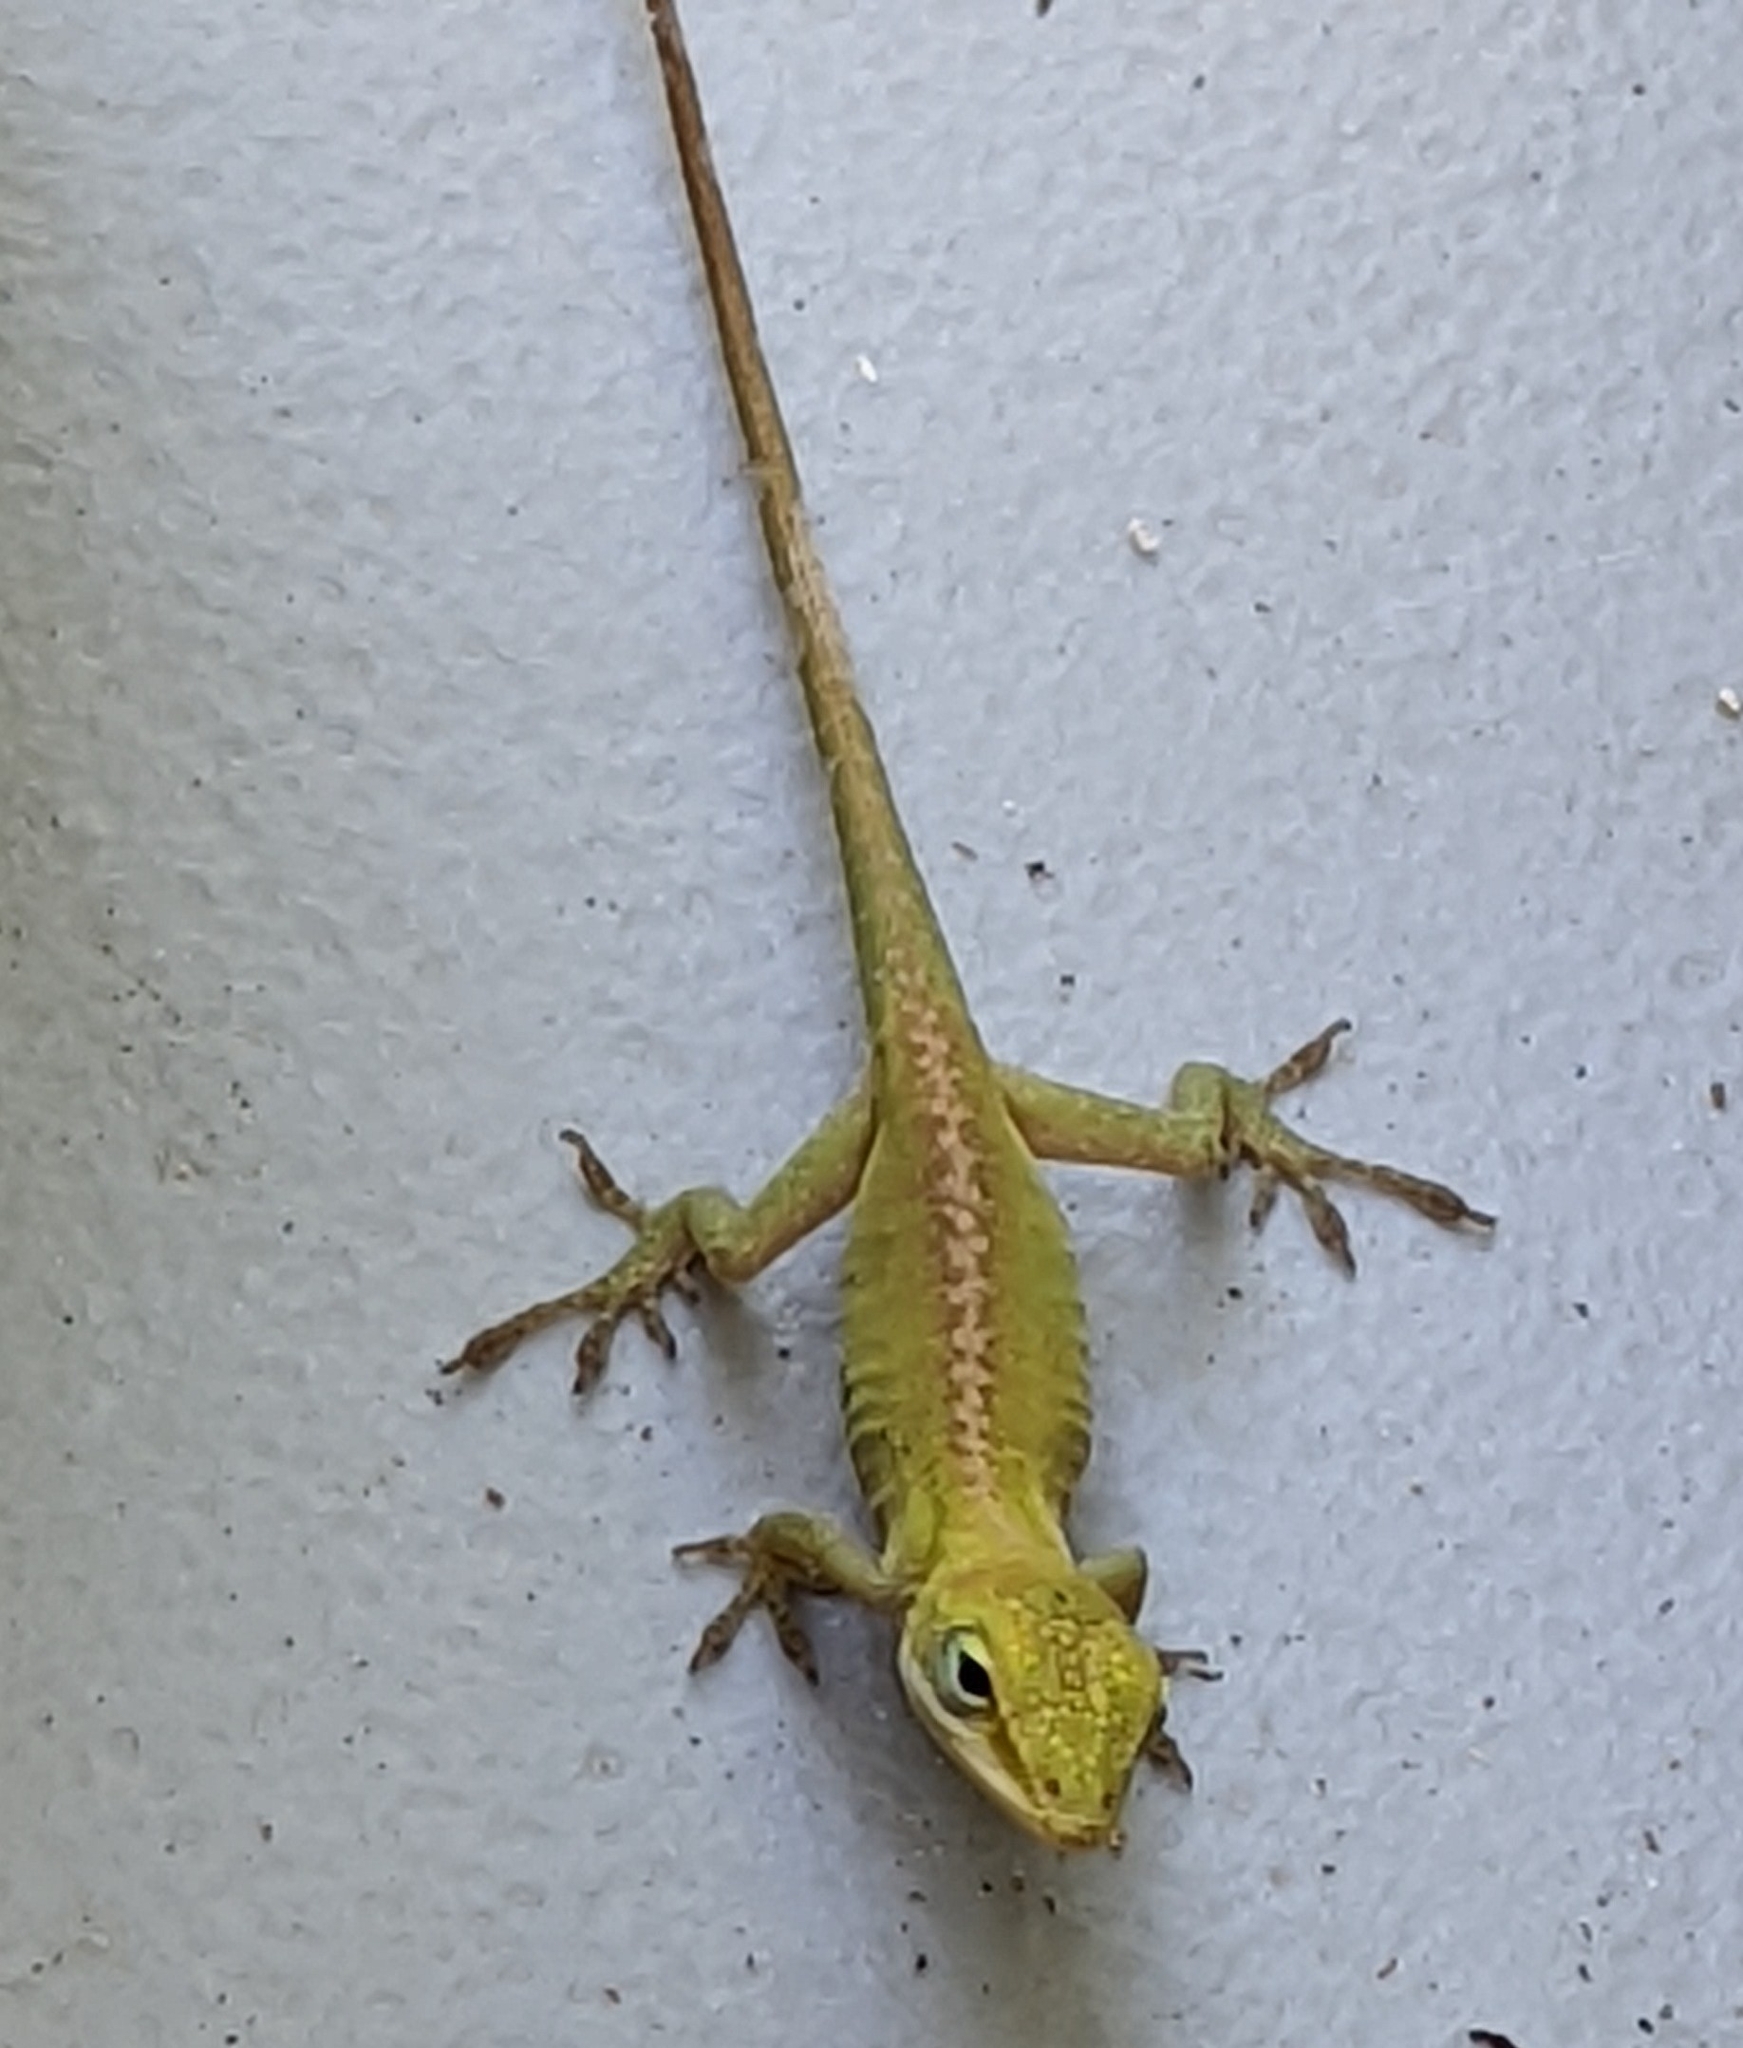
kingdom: Animalia
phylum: Chordata
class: Squamata
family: Dactyloidae
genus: Anolis
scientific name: Anolis carolinensis
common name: Green anole
